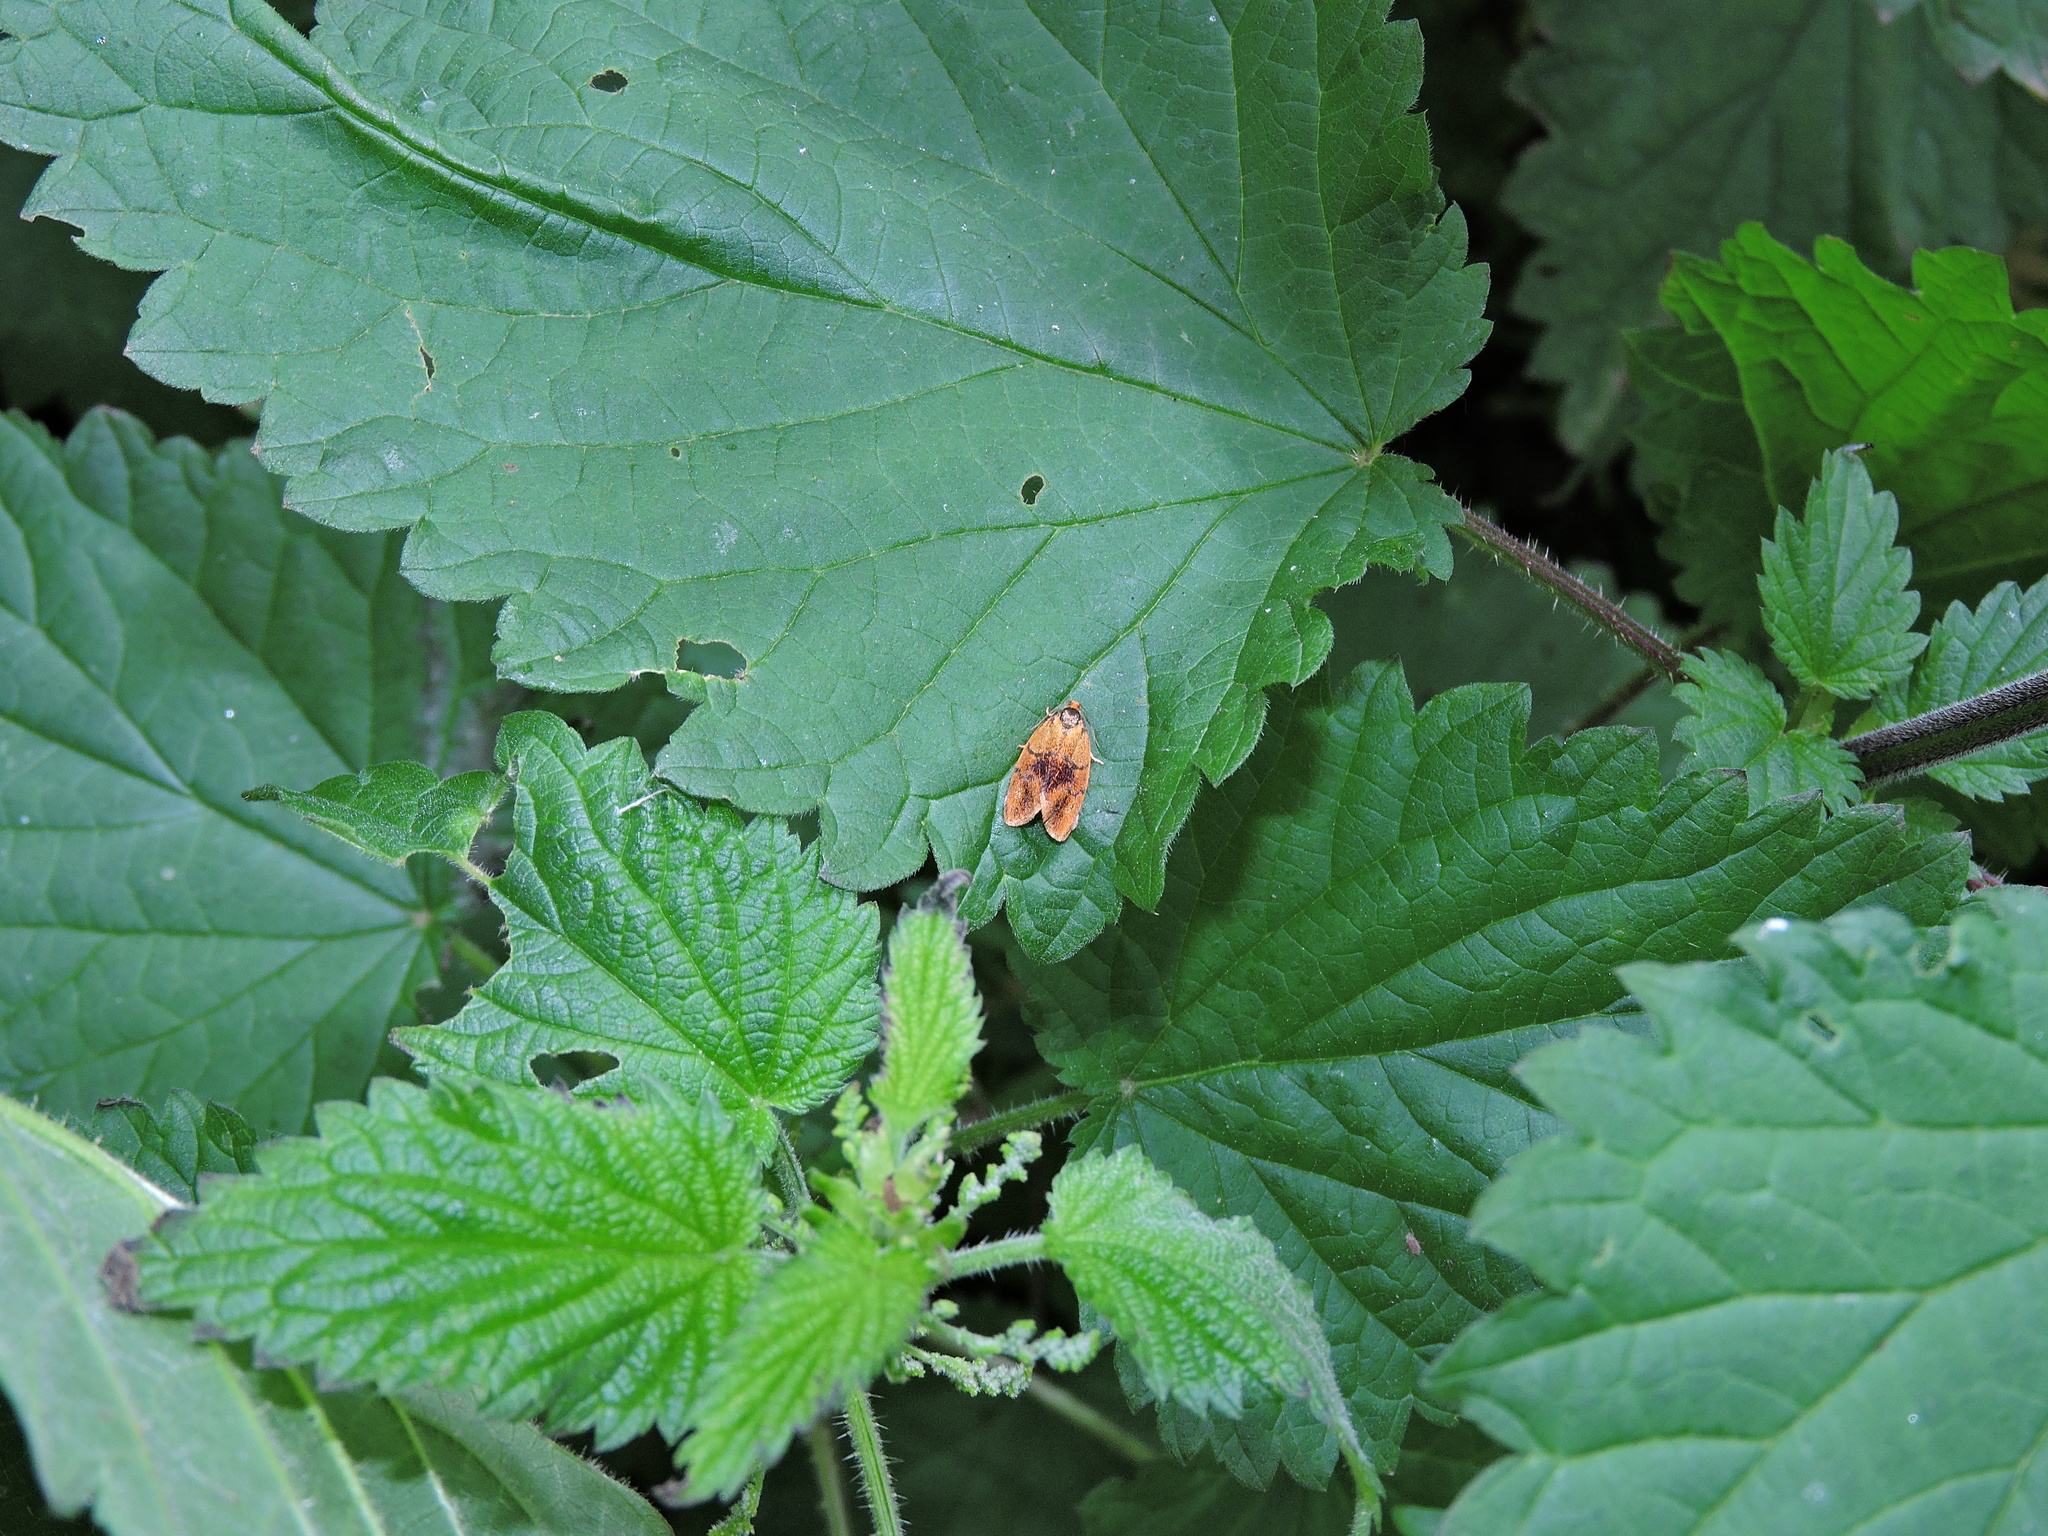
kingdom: Animalia
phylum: Arthropoda
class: Insecta
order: Lepidoptera
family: Tortricidae
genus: Ptycholoma
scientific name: Ptycholoma lecheana
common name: Leches twist moth
